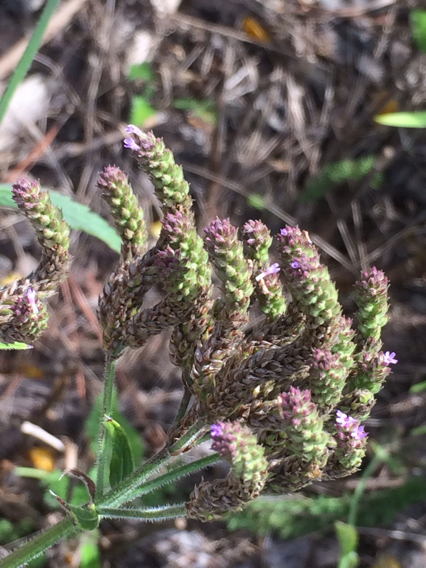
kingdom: Plantae
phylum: Tracheophyta
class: Magnoliopsida
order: Lamiales
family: Verbenaceae
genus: Verbena
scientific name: Verbena bonariensis
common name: Purpletop vervain
